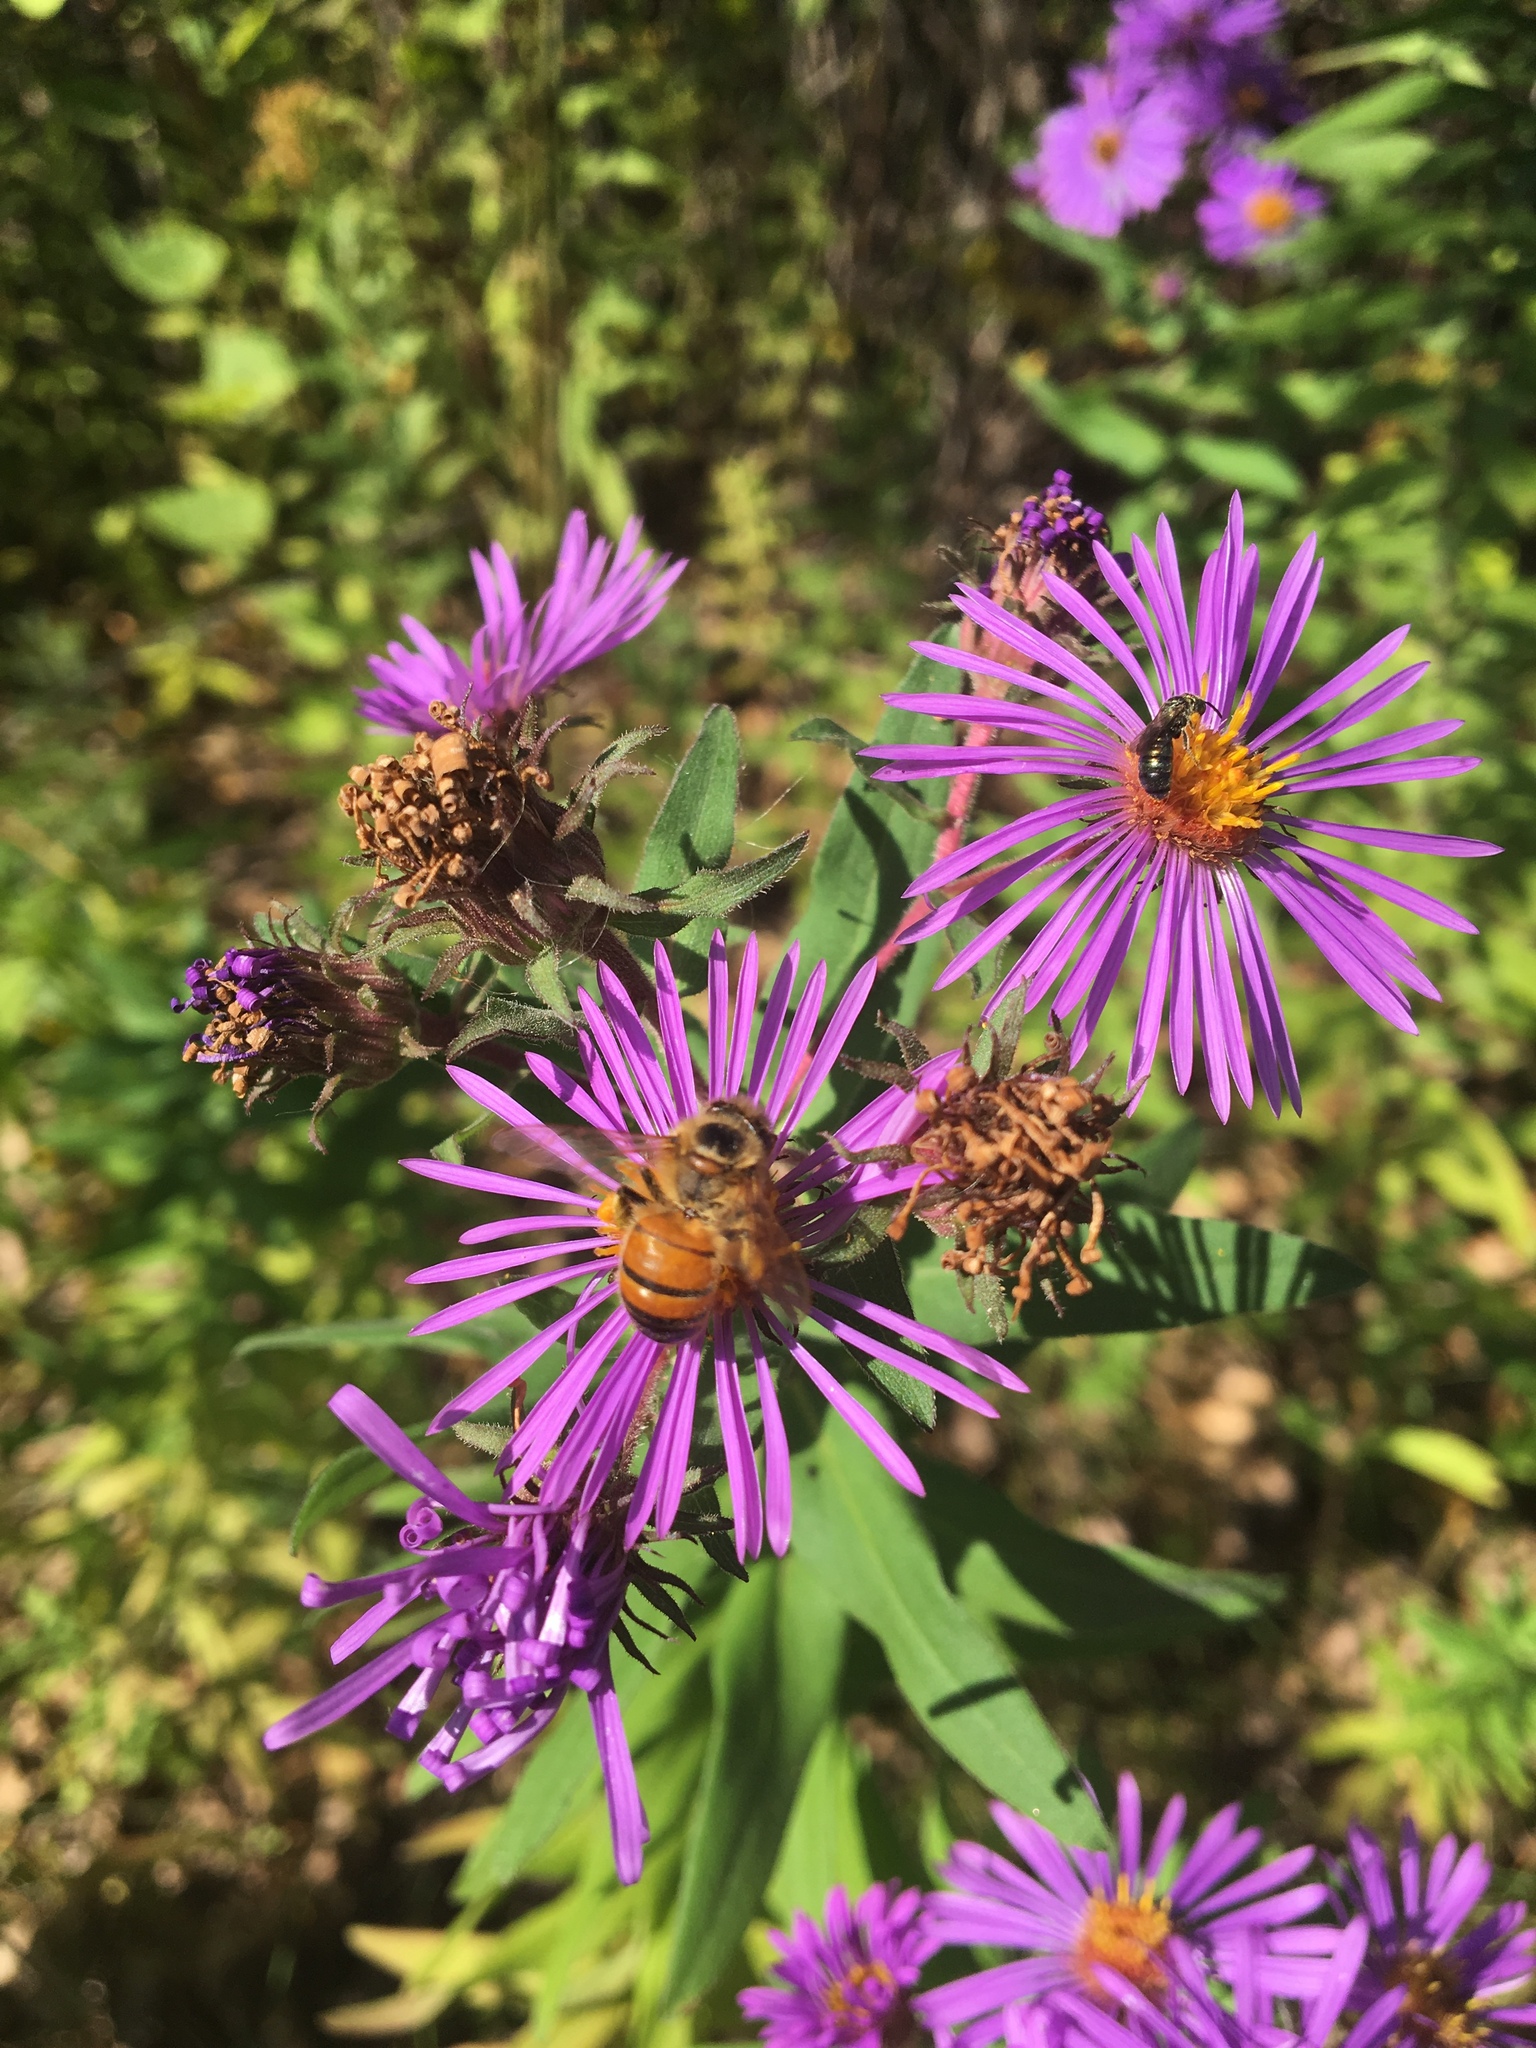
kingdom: Animalia
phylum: Arthropoda
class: Insecta
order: Hymenoptera
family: Apidae
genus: Apis
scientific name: Apis mellifera
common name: Honey bee
